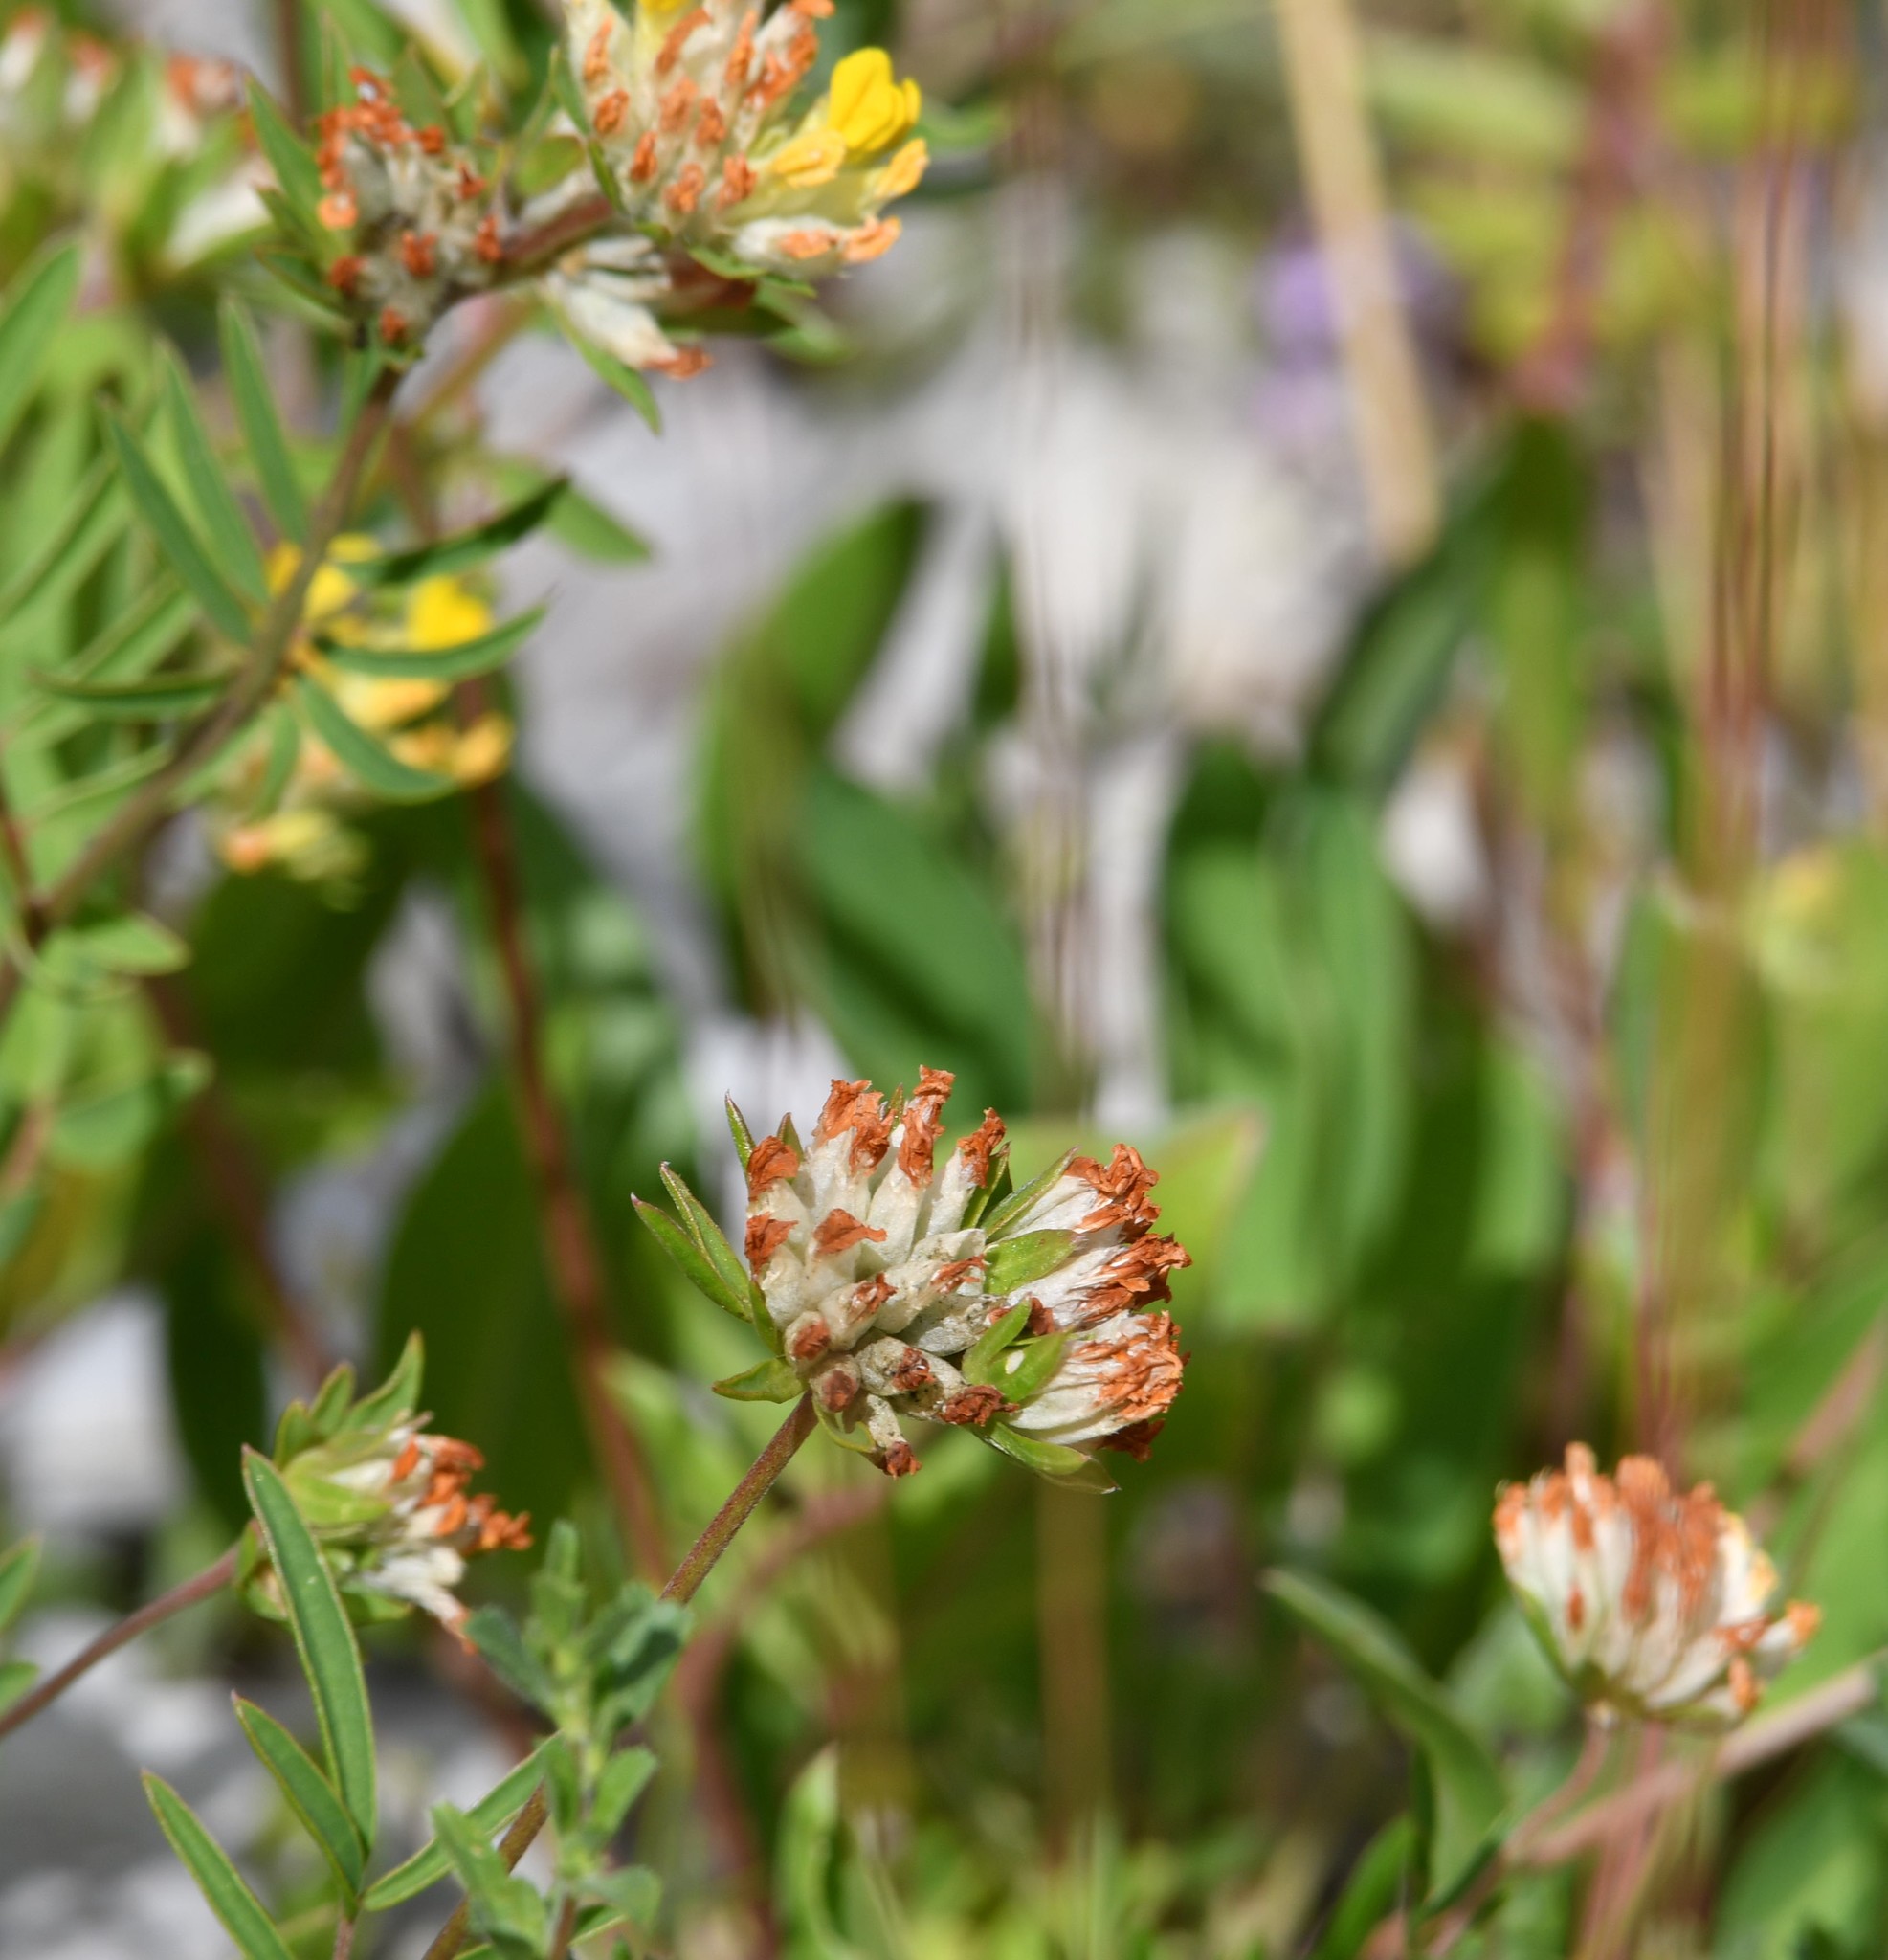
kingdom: Plantae
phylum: Tracheophyta
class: Magnoliopsida
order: Fabales
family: Fabaceae
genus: Anthyllis
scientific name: Anthyllis vulneraria
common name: Kidney vetch
